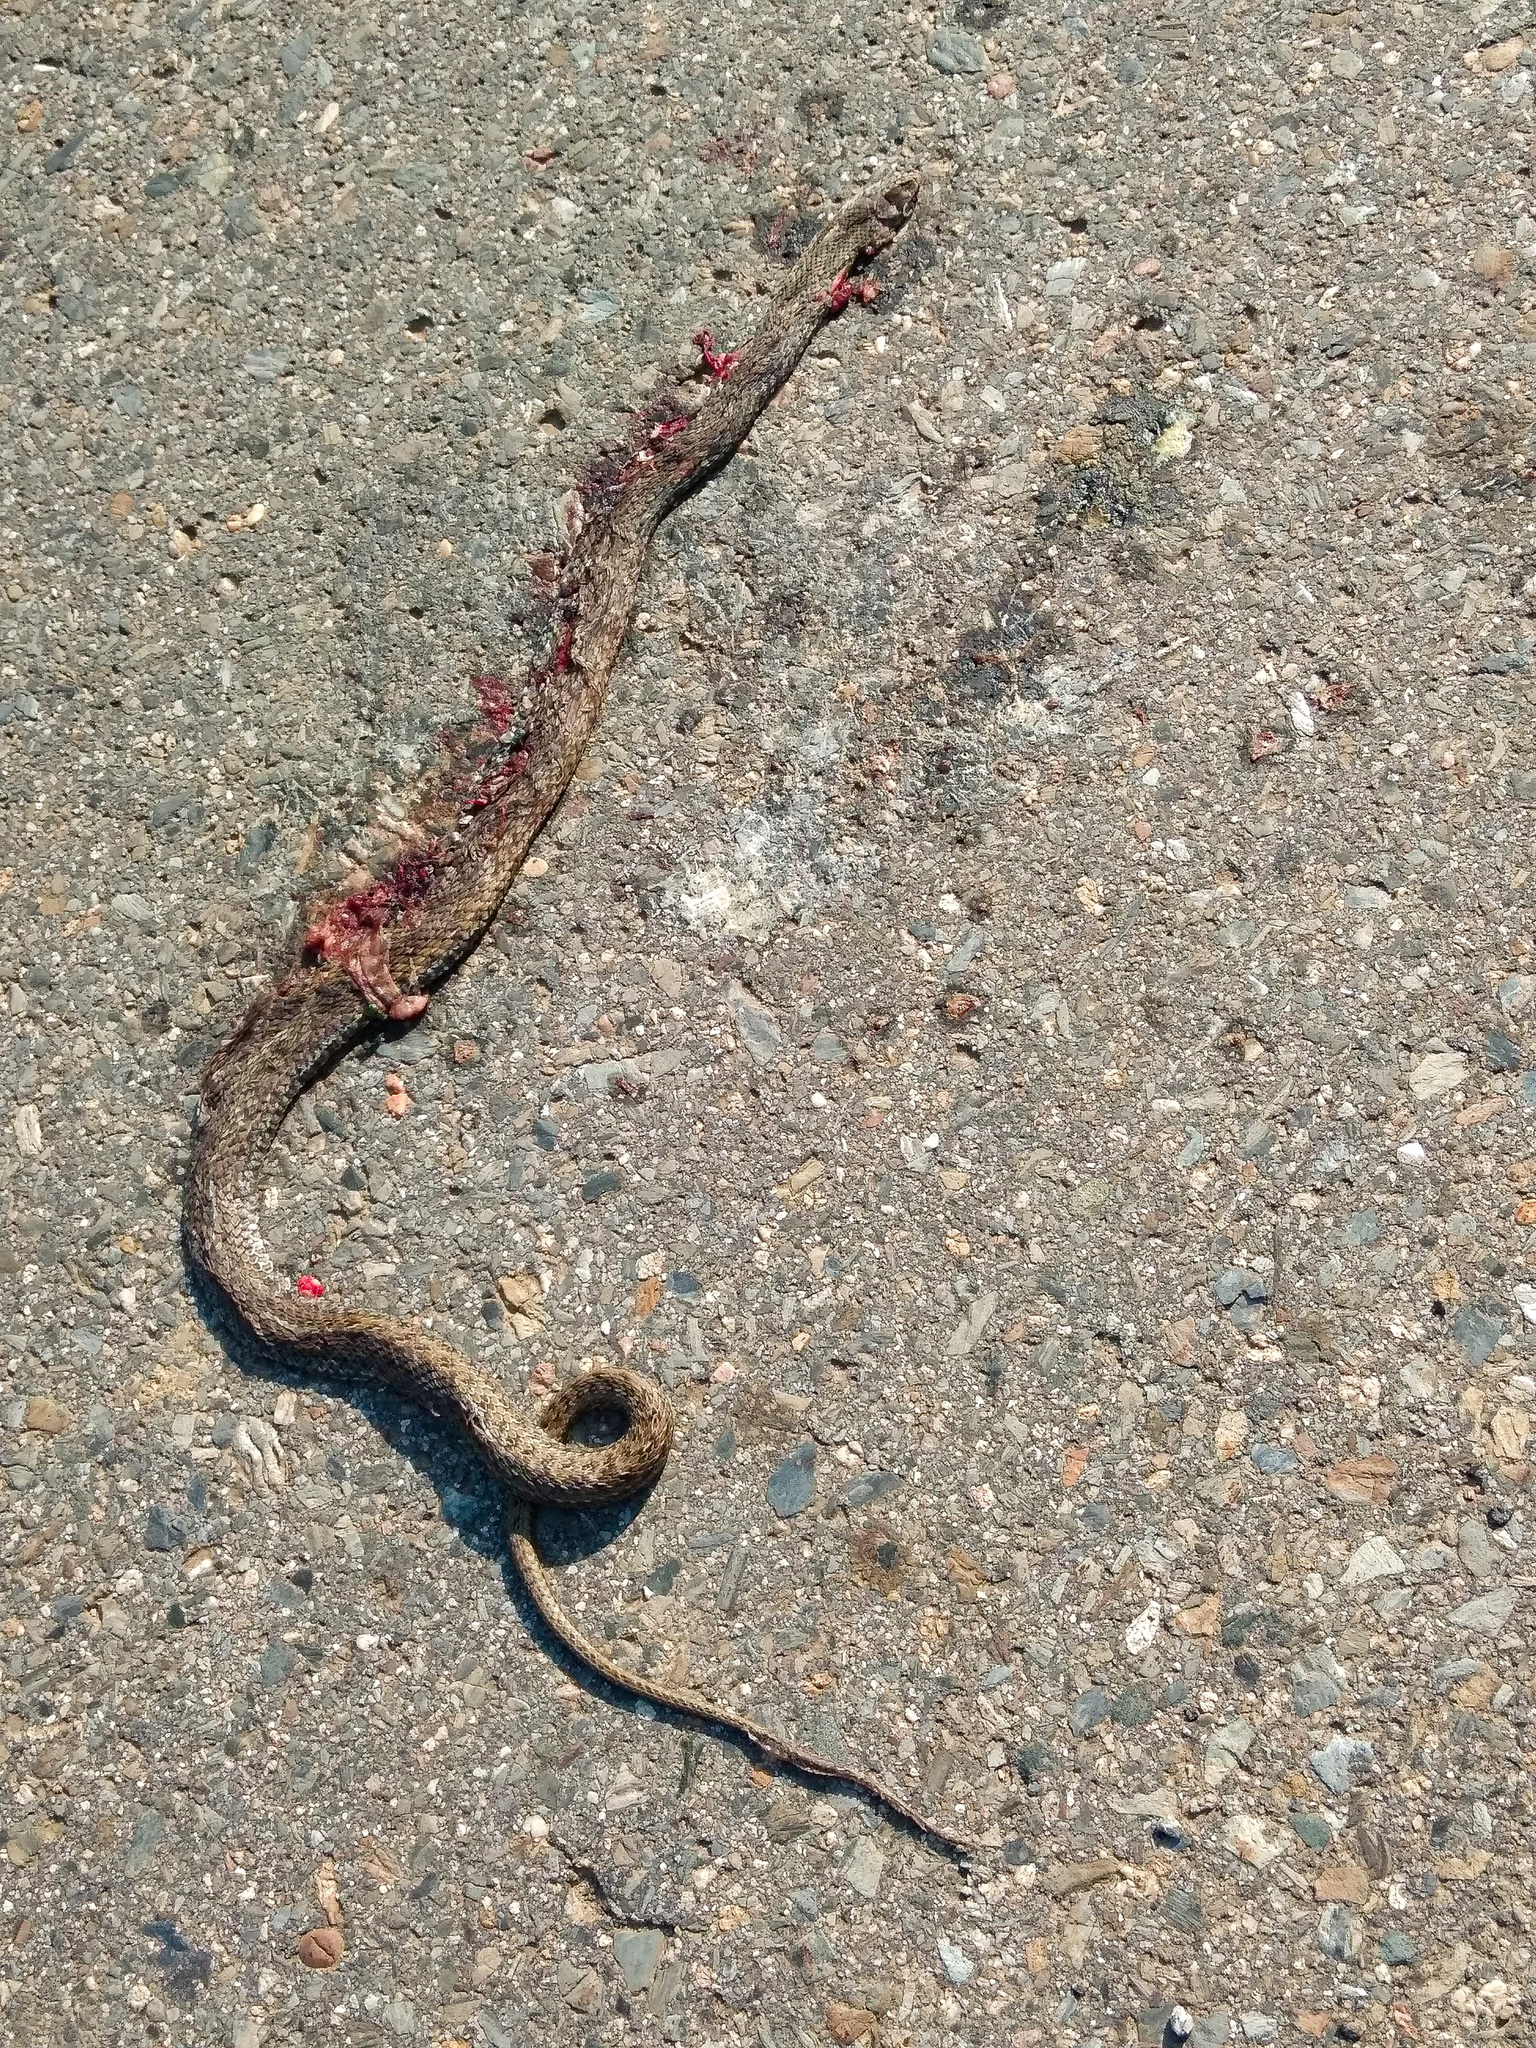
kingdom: Animalia
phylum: Chordata
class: Squamata
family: Psammophiidae
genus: Malpolon
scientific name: Malpolon monspessulanus
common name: Montpellier snake
